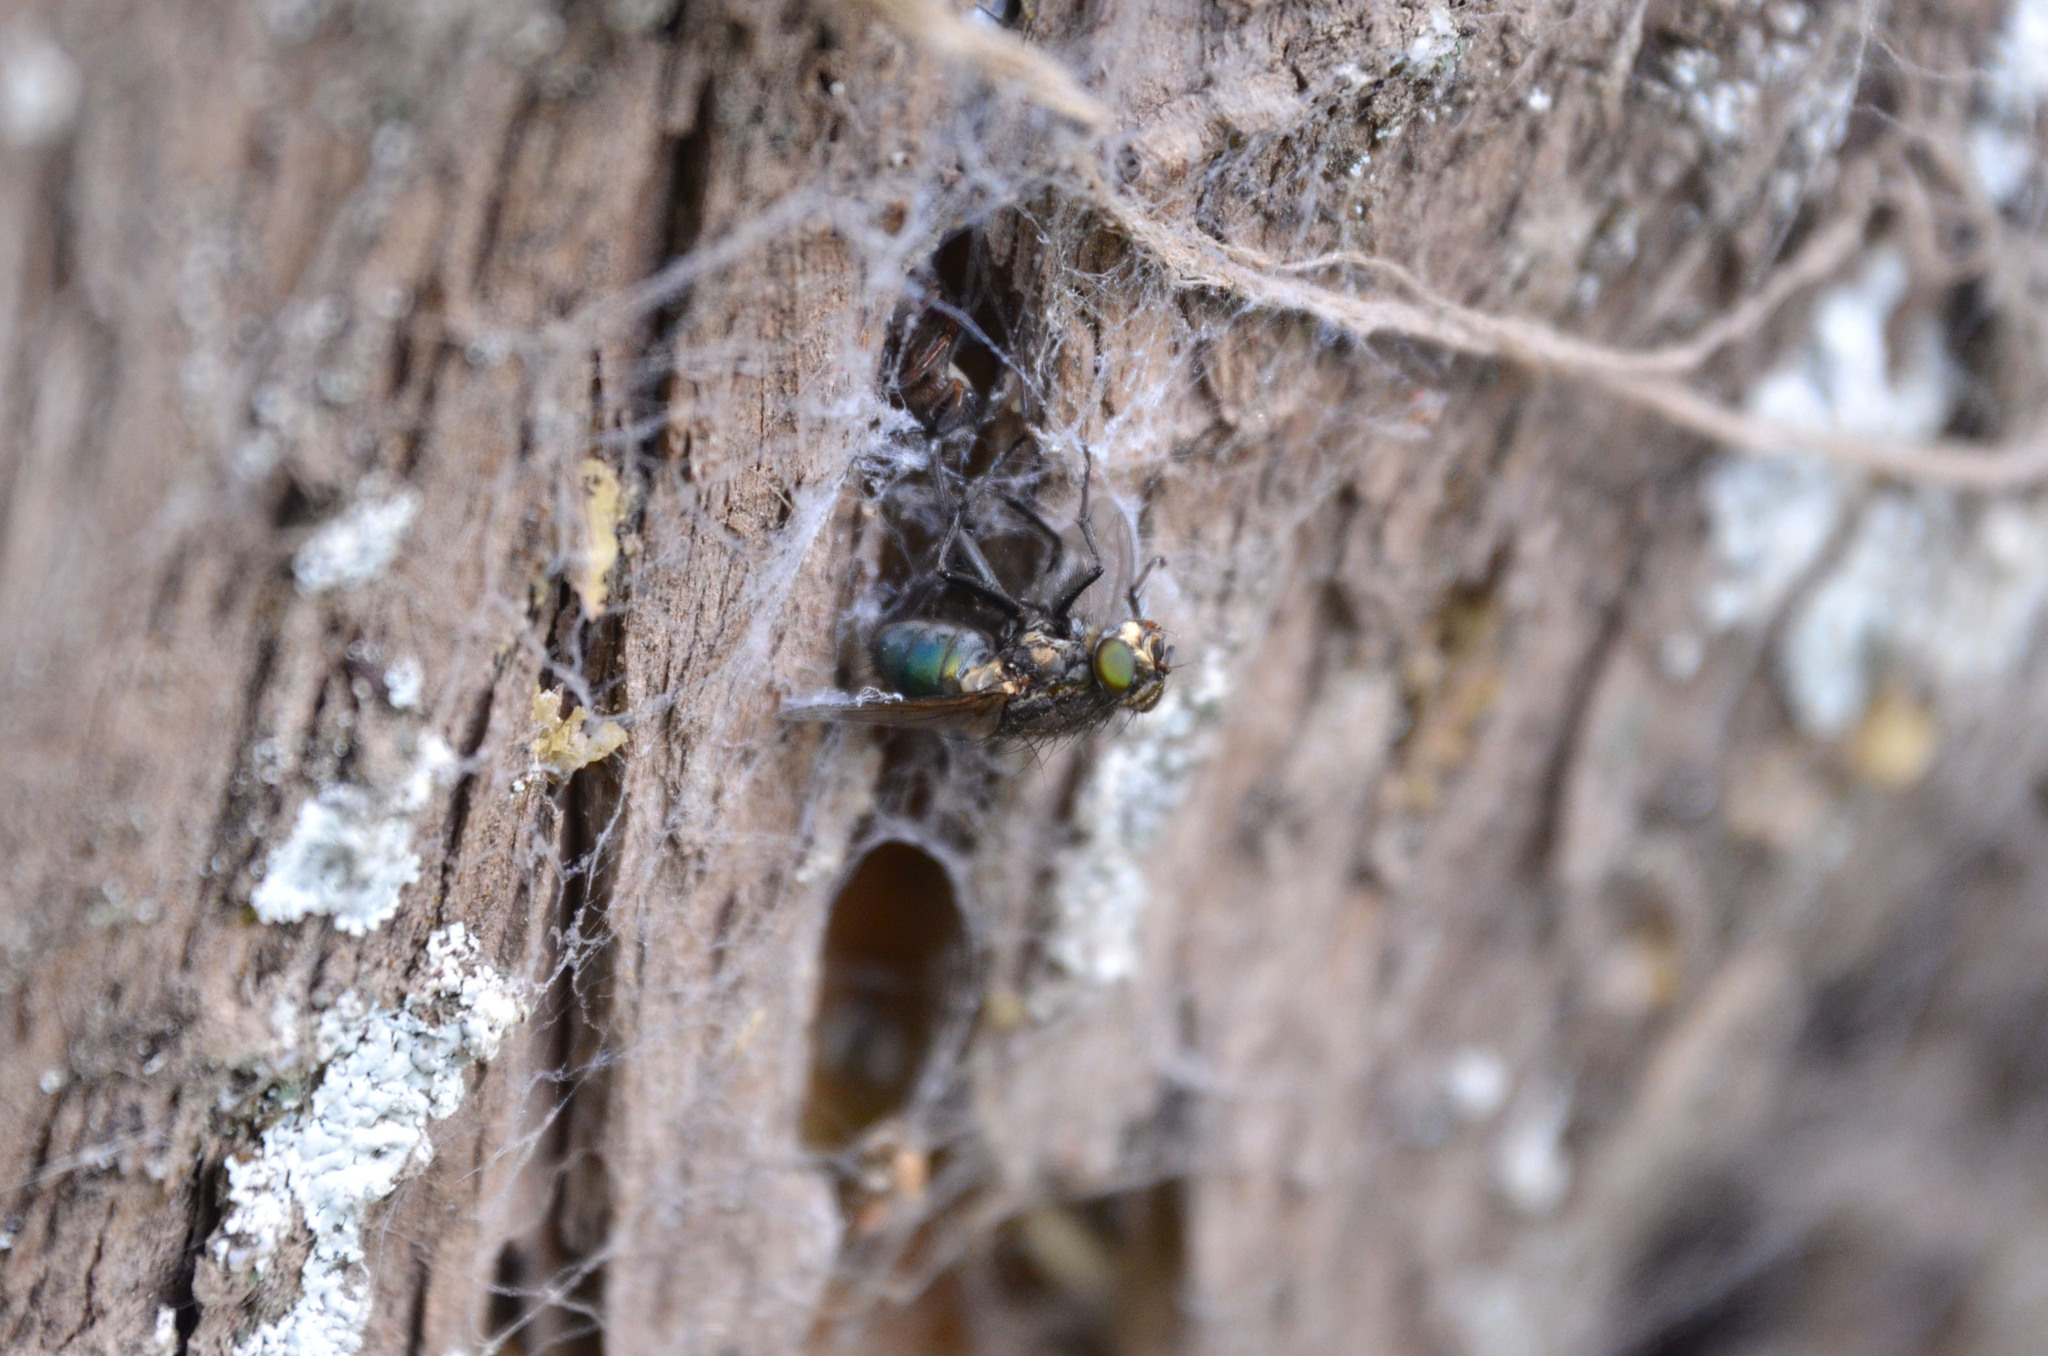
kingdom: Animalia
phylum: Arthropoda
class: Insecta
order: Diptera
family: Calliphoridae
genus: Sarconesia
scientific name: Sarconesia chlorogaster
